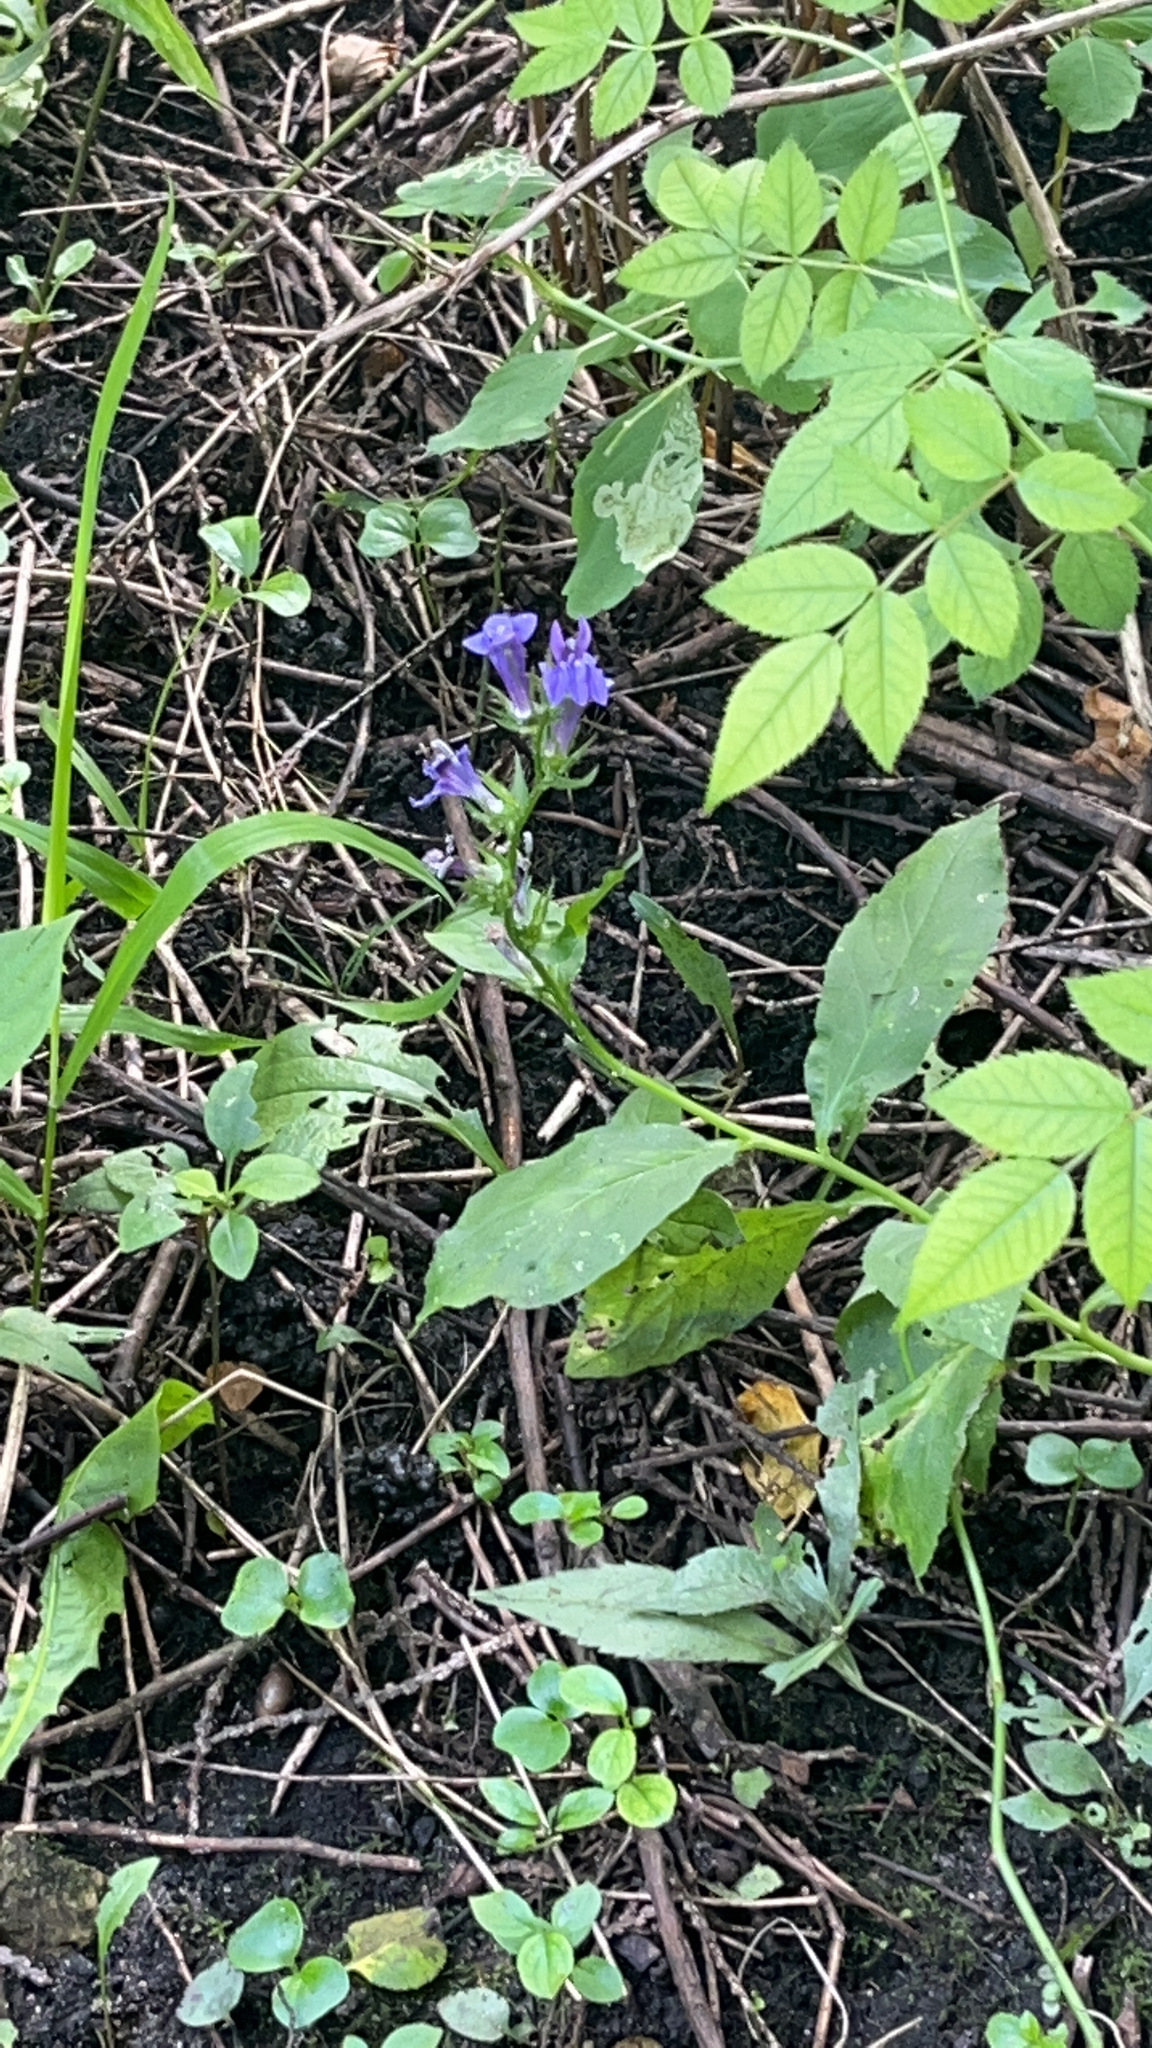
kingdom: Plantae
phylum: Tracheophyta
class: Magnoliopsida
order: Asterales
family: Campanulaceae
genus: Lobelia
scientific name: Lobelia siphilitica
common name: Great lobelia
